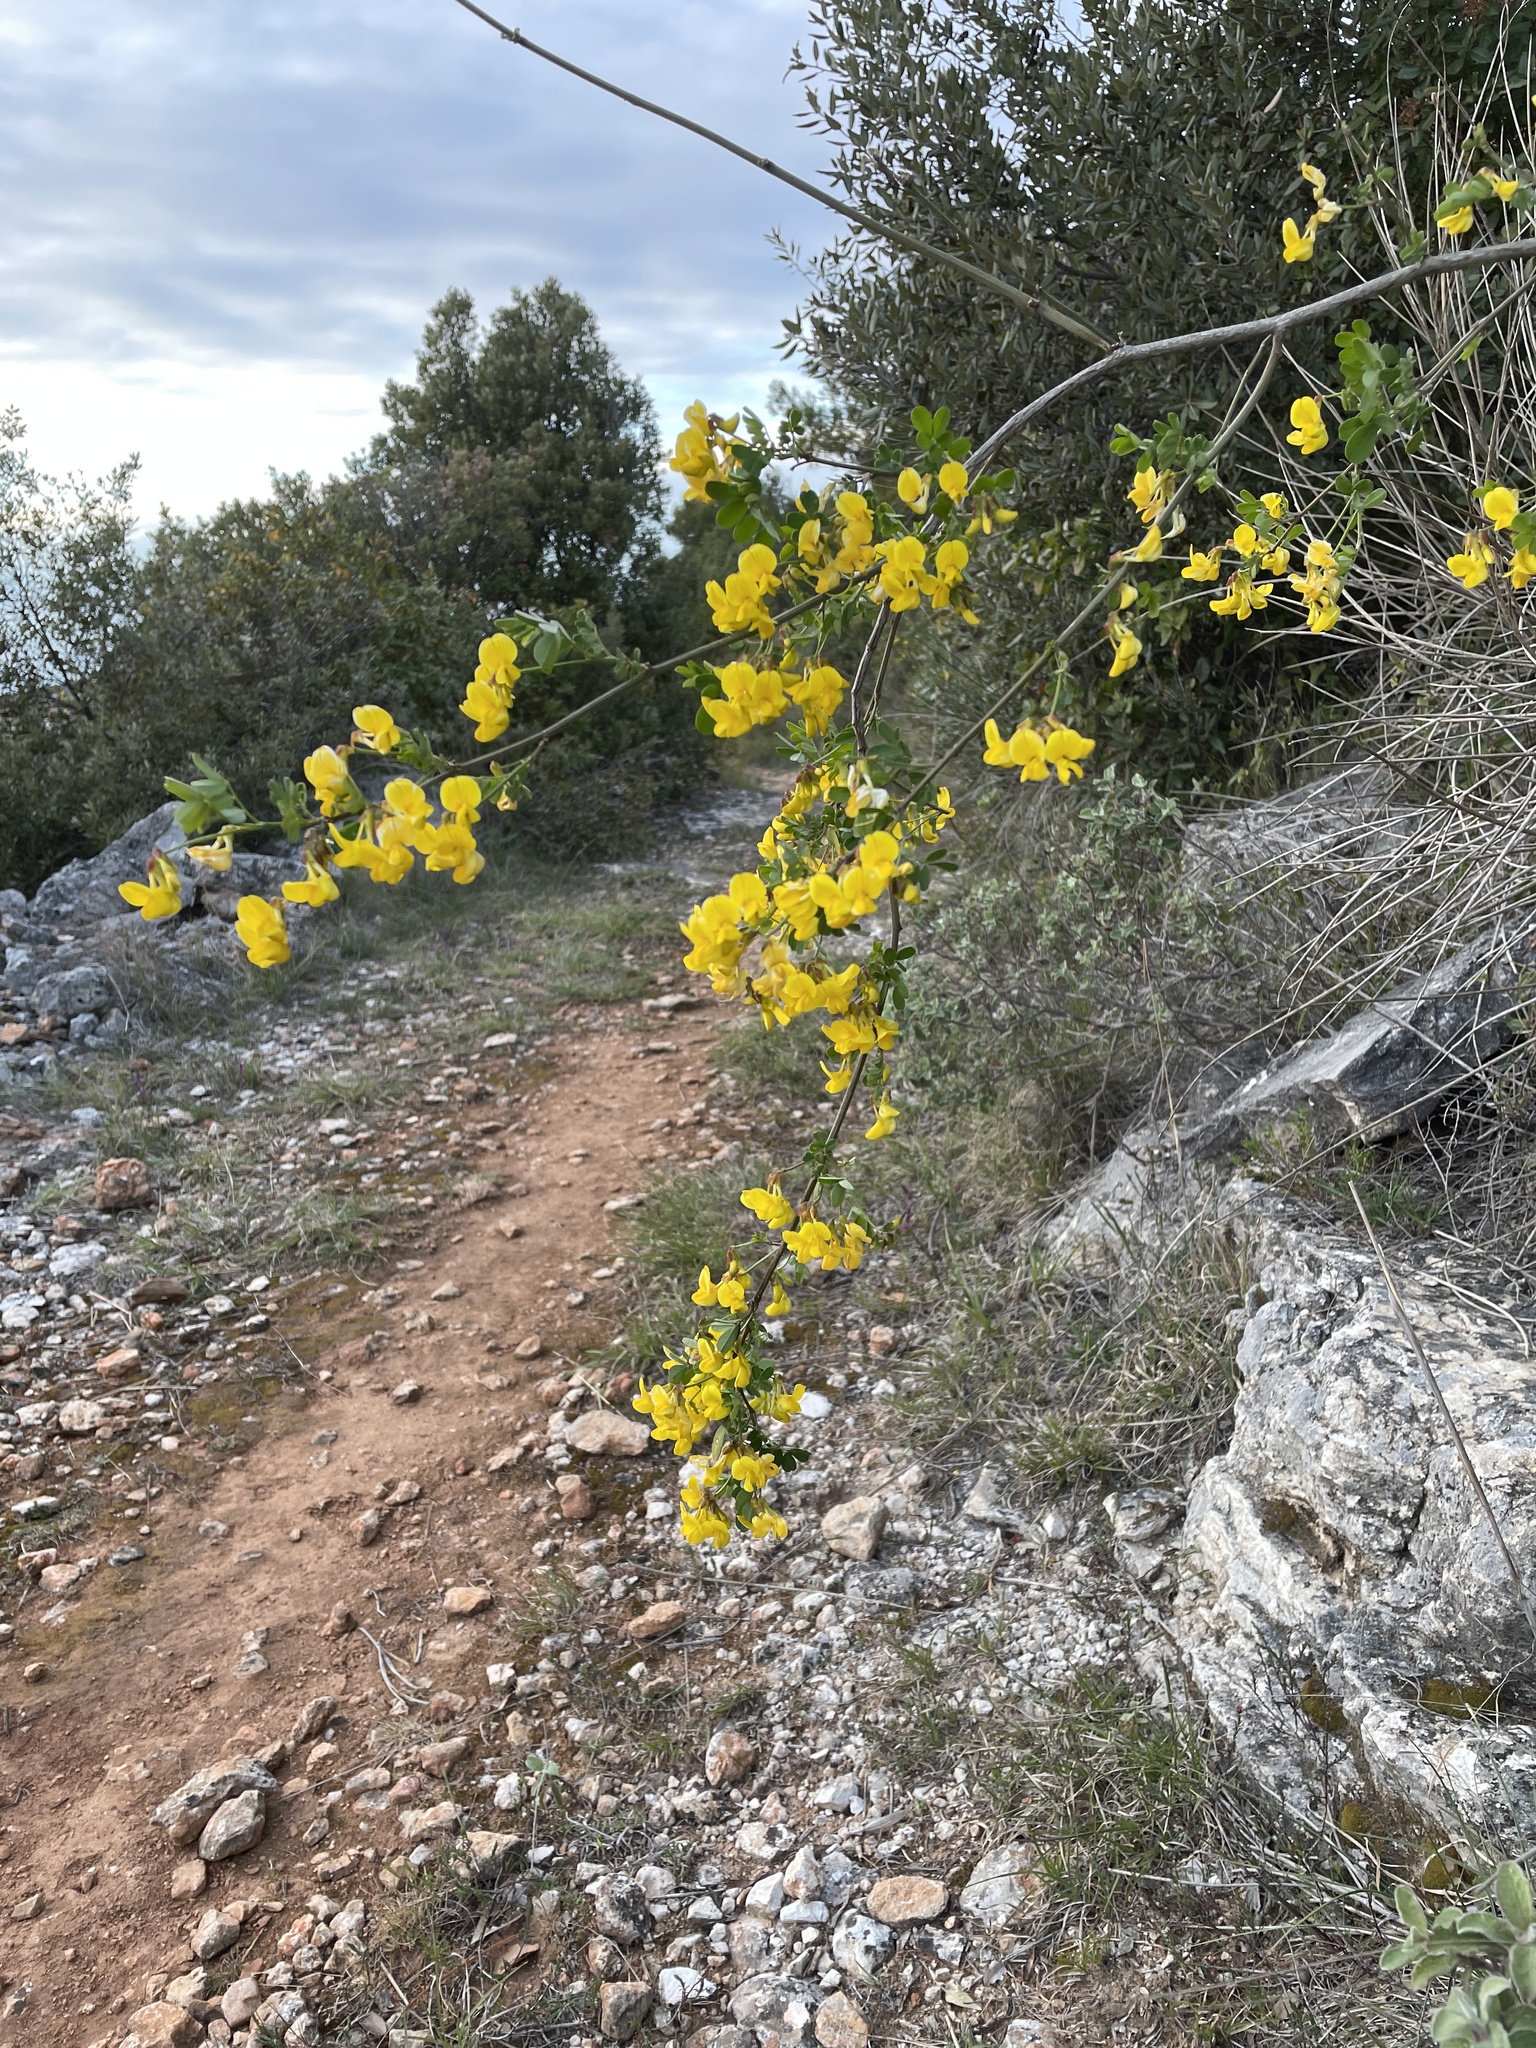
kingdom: Plantae
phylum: Tracheophyta
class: Magnoliopsida
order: Fabales
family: Fabaceae
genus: Hippocrepis
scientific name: Hippocrepis emerus
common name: Scorpion senna
